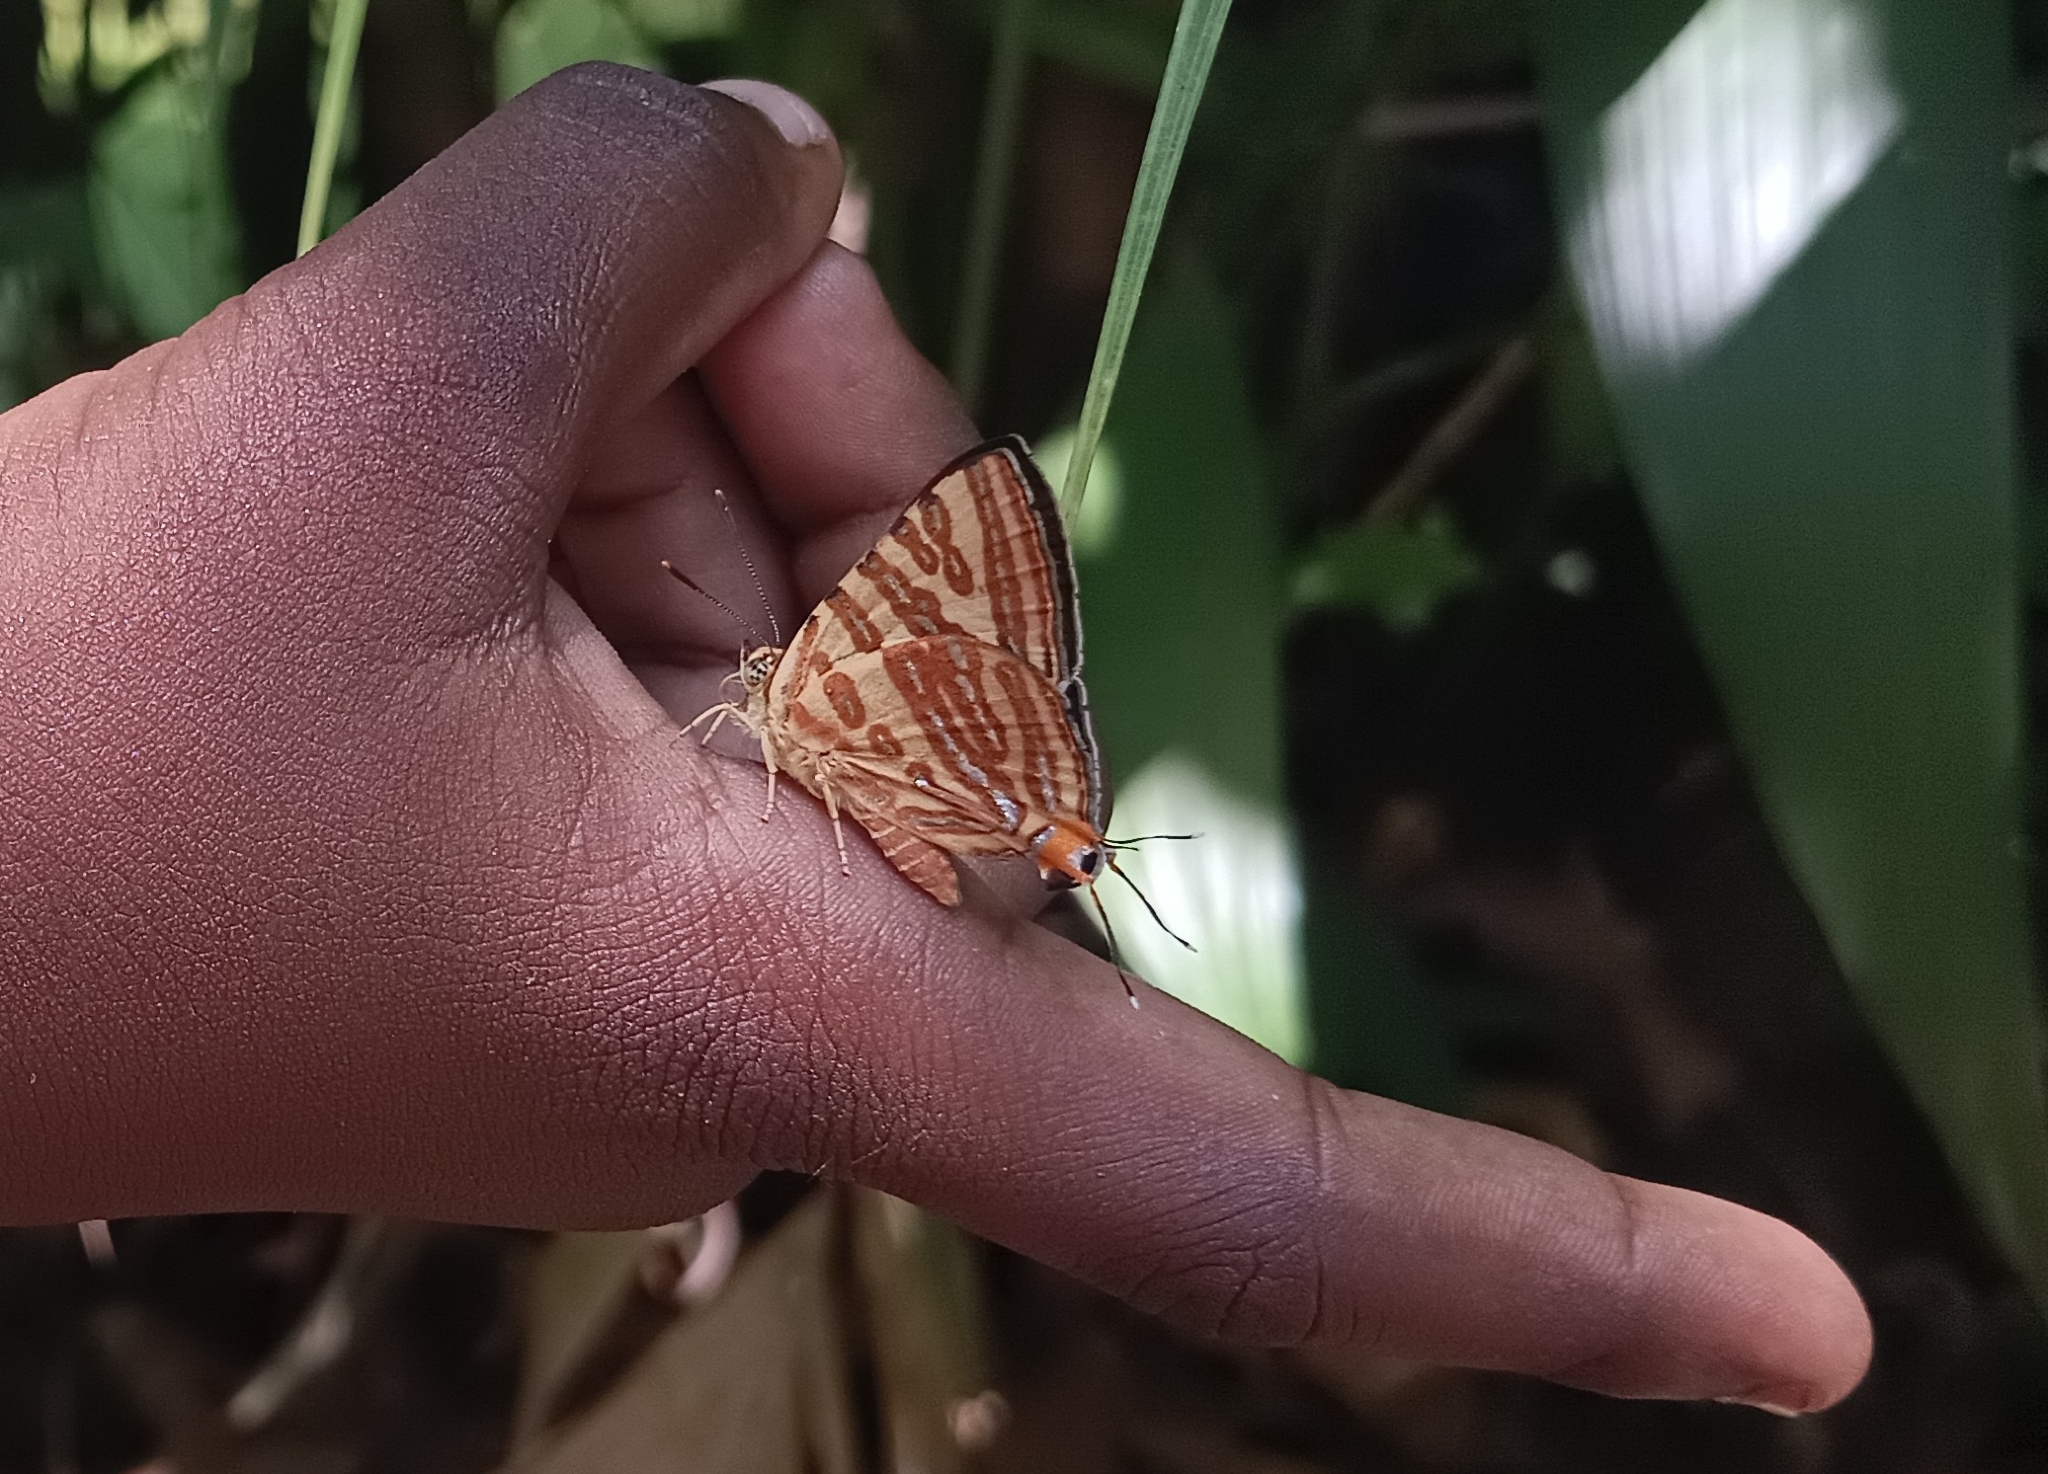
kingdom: Animalia
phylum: Arthropoda
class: Insecta
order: Lepidoptera
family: Lycaenidae
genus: Cigaritis
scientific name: Cigaritis lohita
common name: Long-banded silverline
